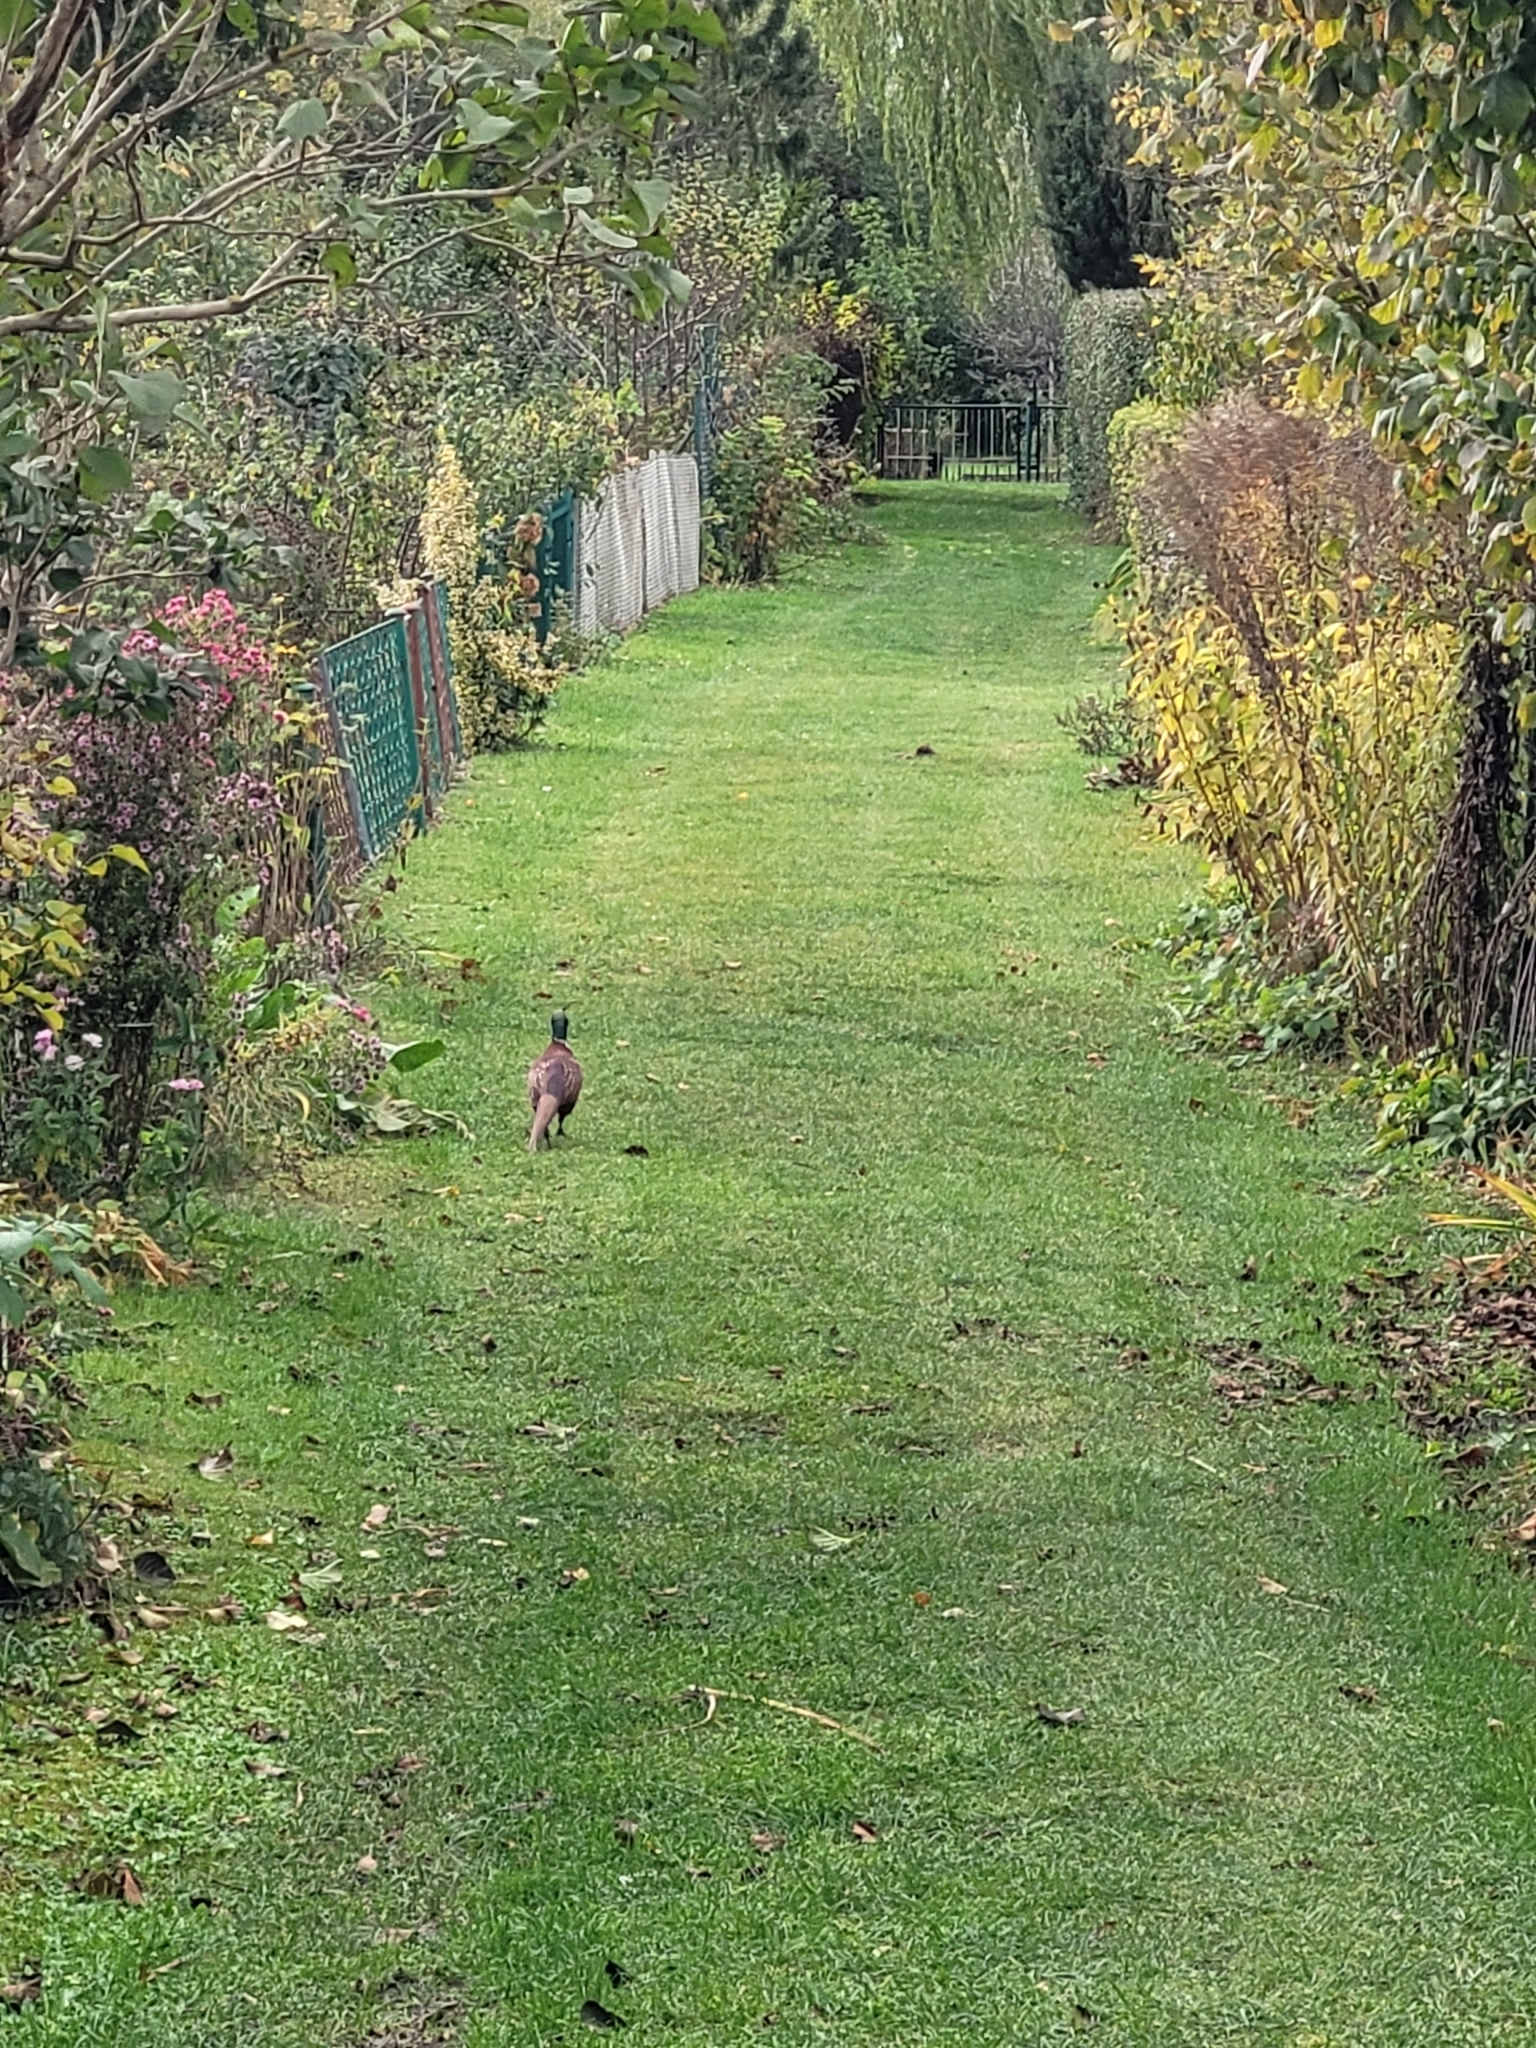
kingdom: Animalia
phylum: Chordata
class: Aves
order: Galliformes
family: Phasianidae
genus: Phasianus
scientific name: Phasianus colchicus
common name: Common pheasant
